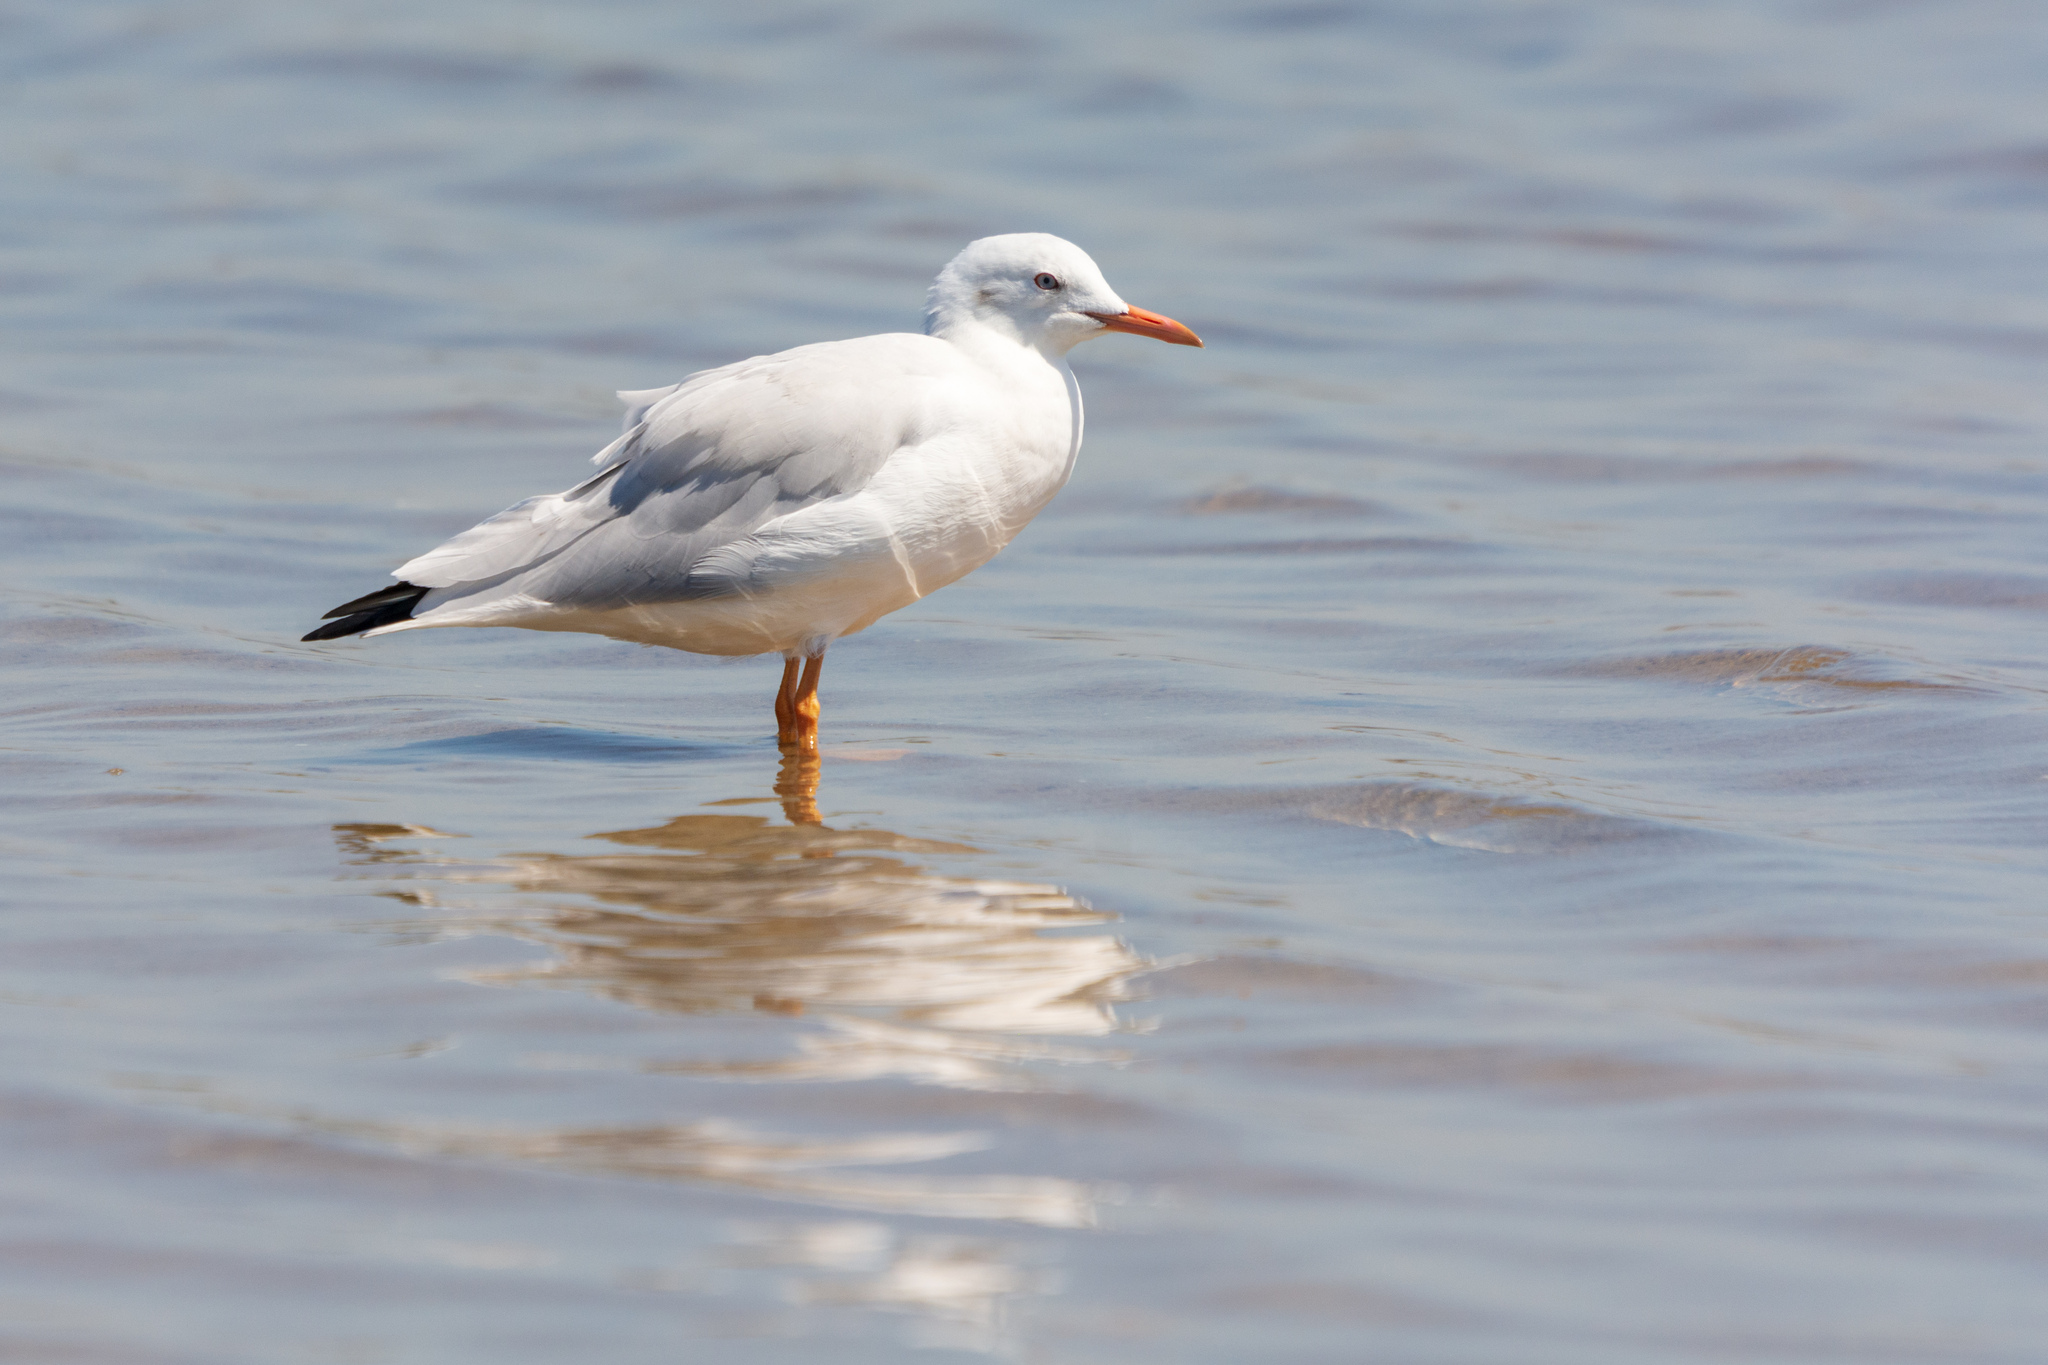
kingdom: Animalia
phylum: Chordata
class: Aves
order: Charadriiformes
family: Laridae
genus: Chroicocephalus
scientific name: Chroicocephalus genei
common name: Slender-billed gull
